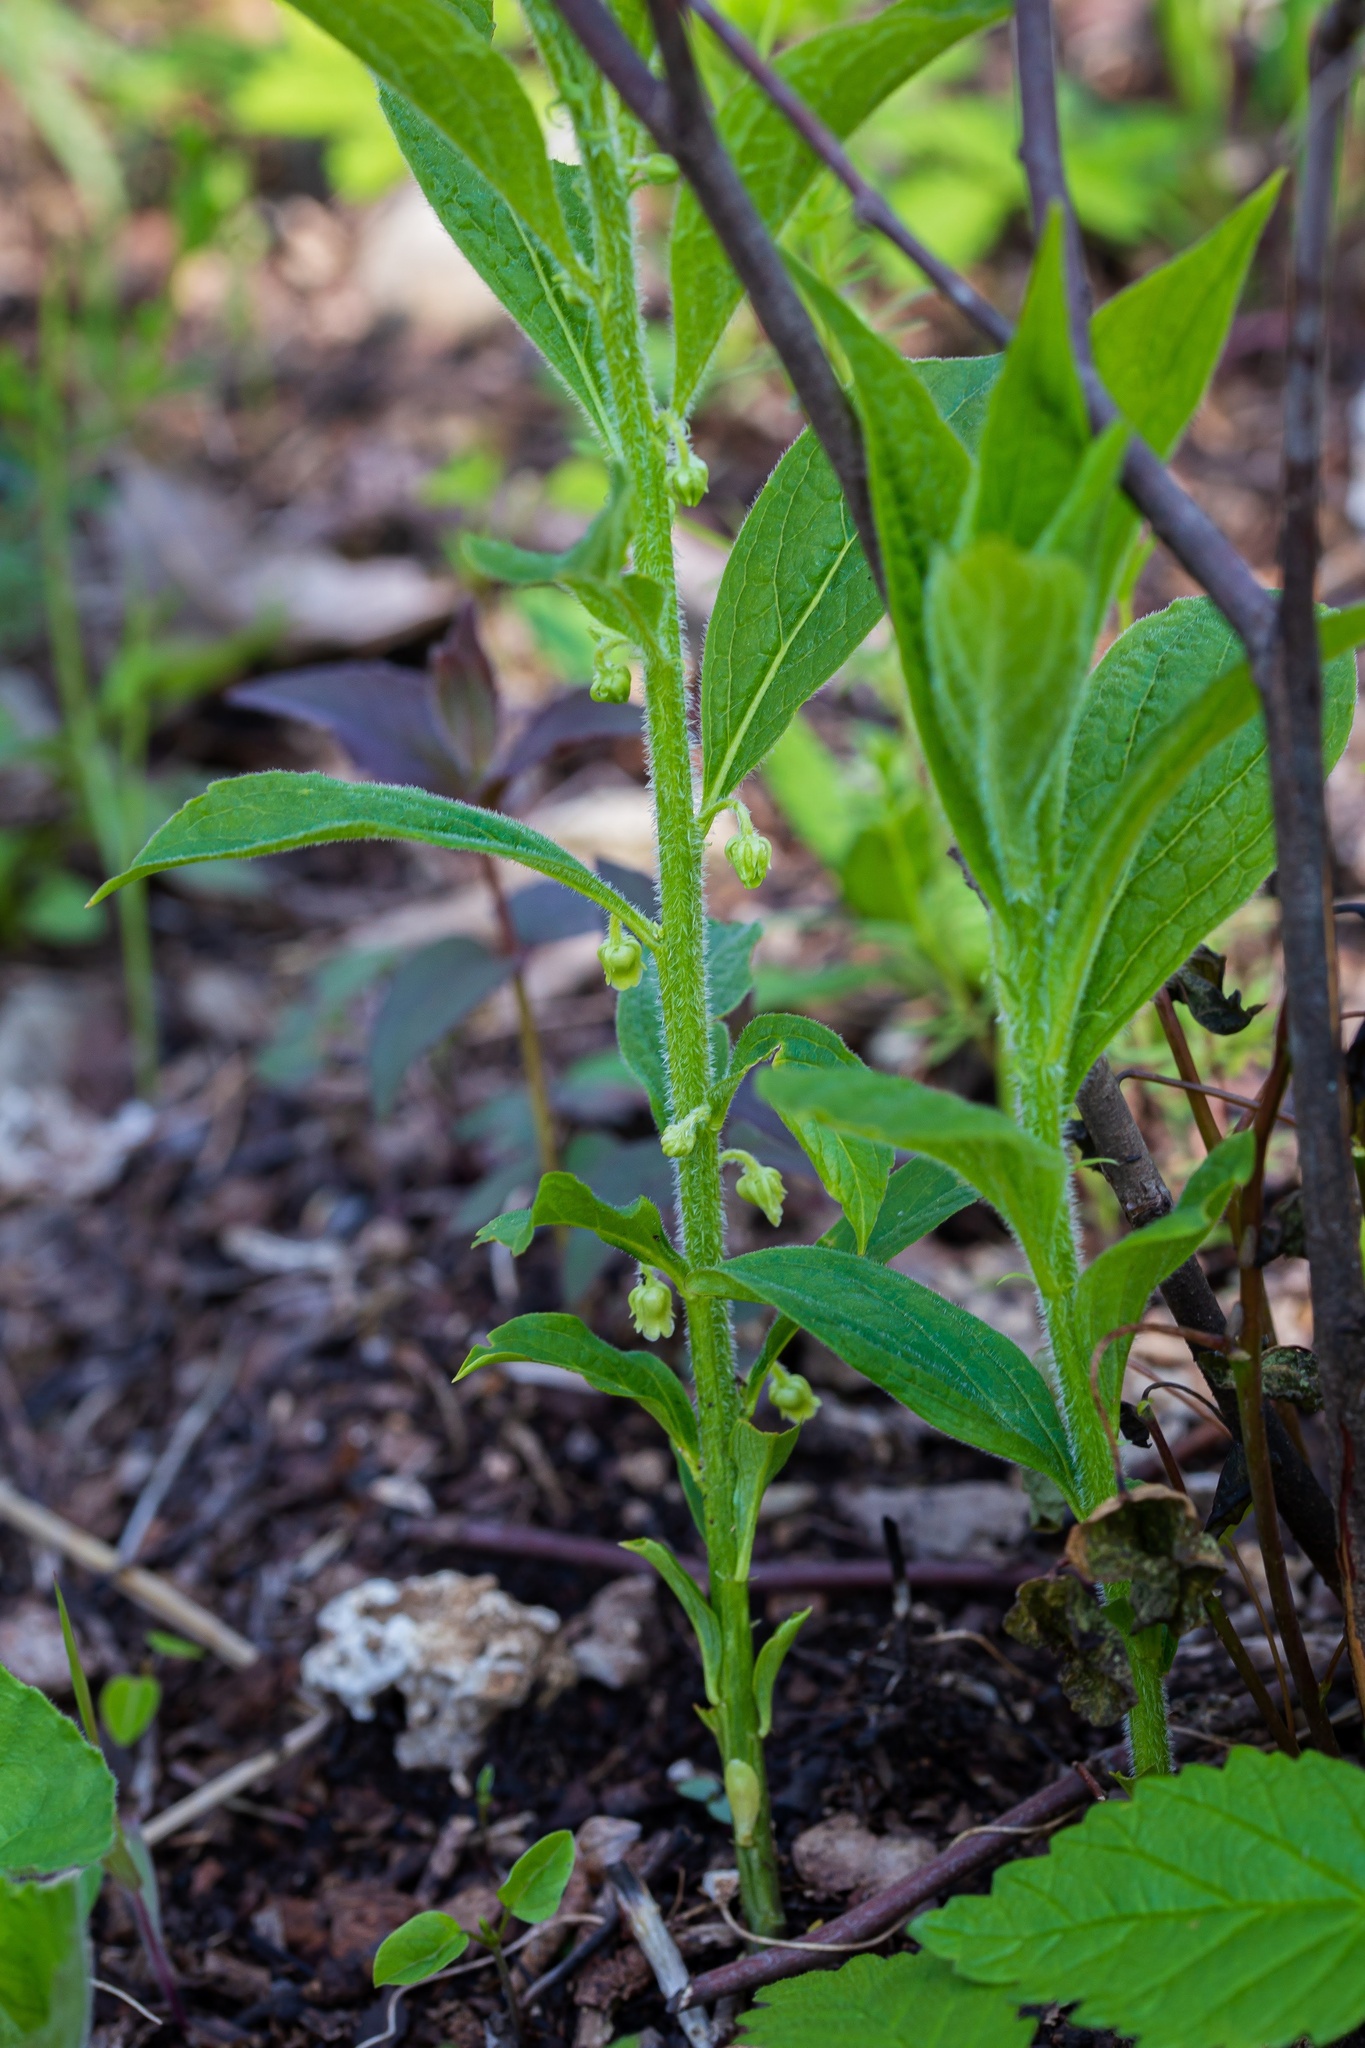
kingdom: Plantae
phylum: Tracheophyta
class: Magnoliopsida
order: Malpighiales
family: Violaceae
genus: Cubelium
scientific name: Cubelium concolor
